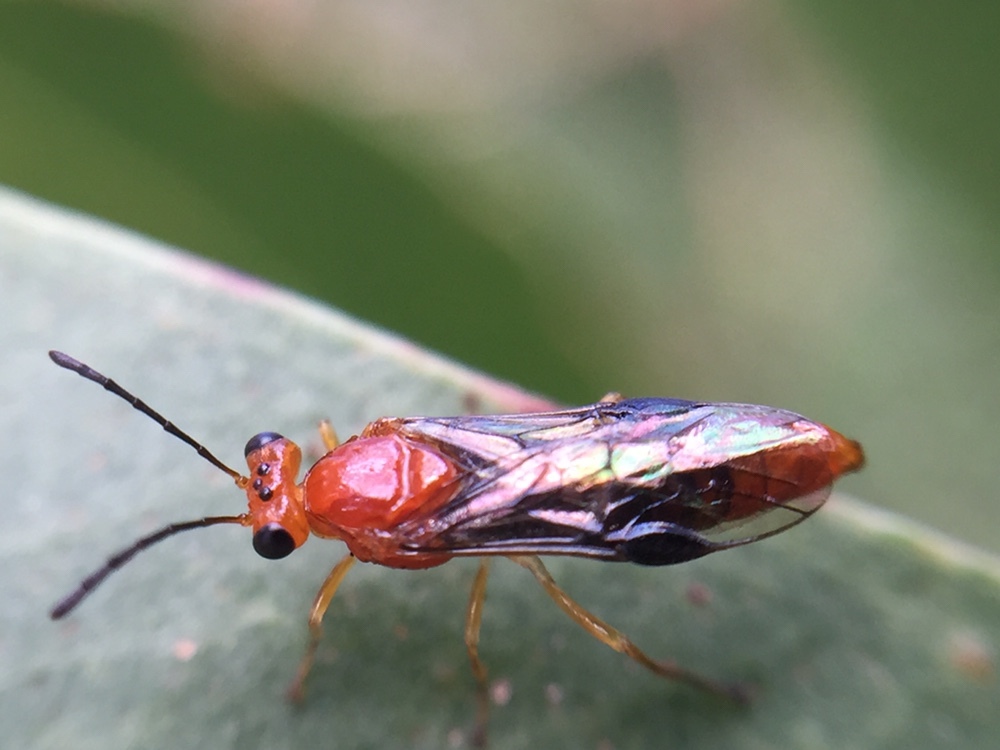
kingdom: Animalia
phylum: Arthropoda
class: Insecta
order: Hymenoptera
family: Pergidae
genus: Phylacteophaga
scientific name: Phylacteophaga froggatti
